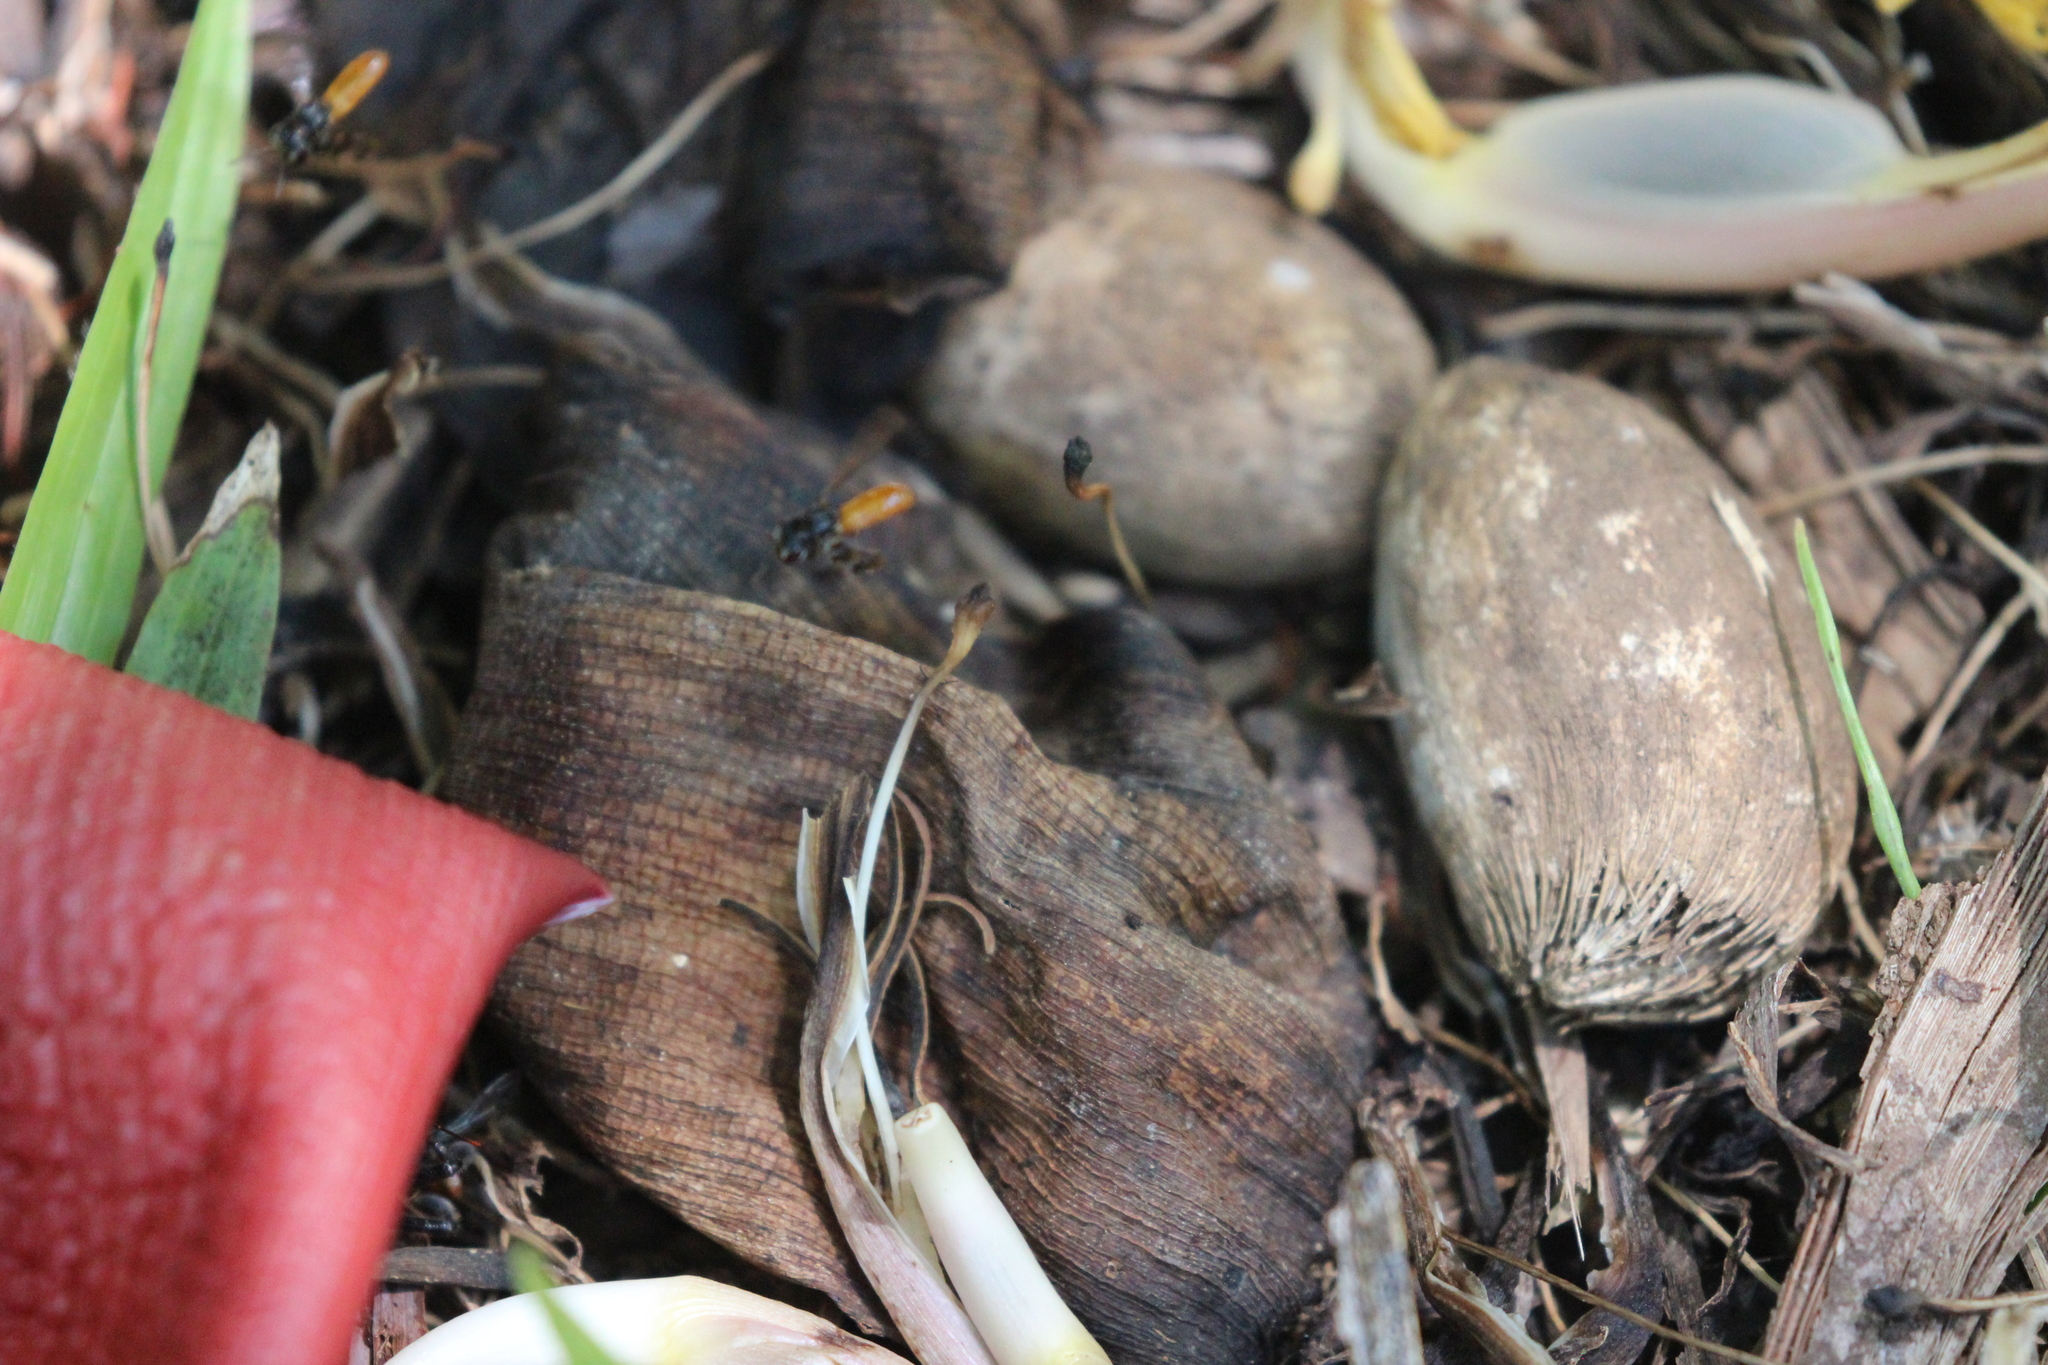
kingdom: Animalia
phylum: Arthropoda
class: Insecta
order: Hymenoptera
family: Apidae
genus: Trigona
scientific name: Trigona fulviventris
